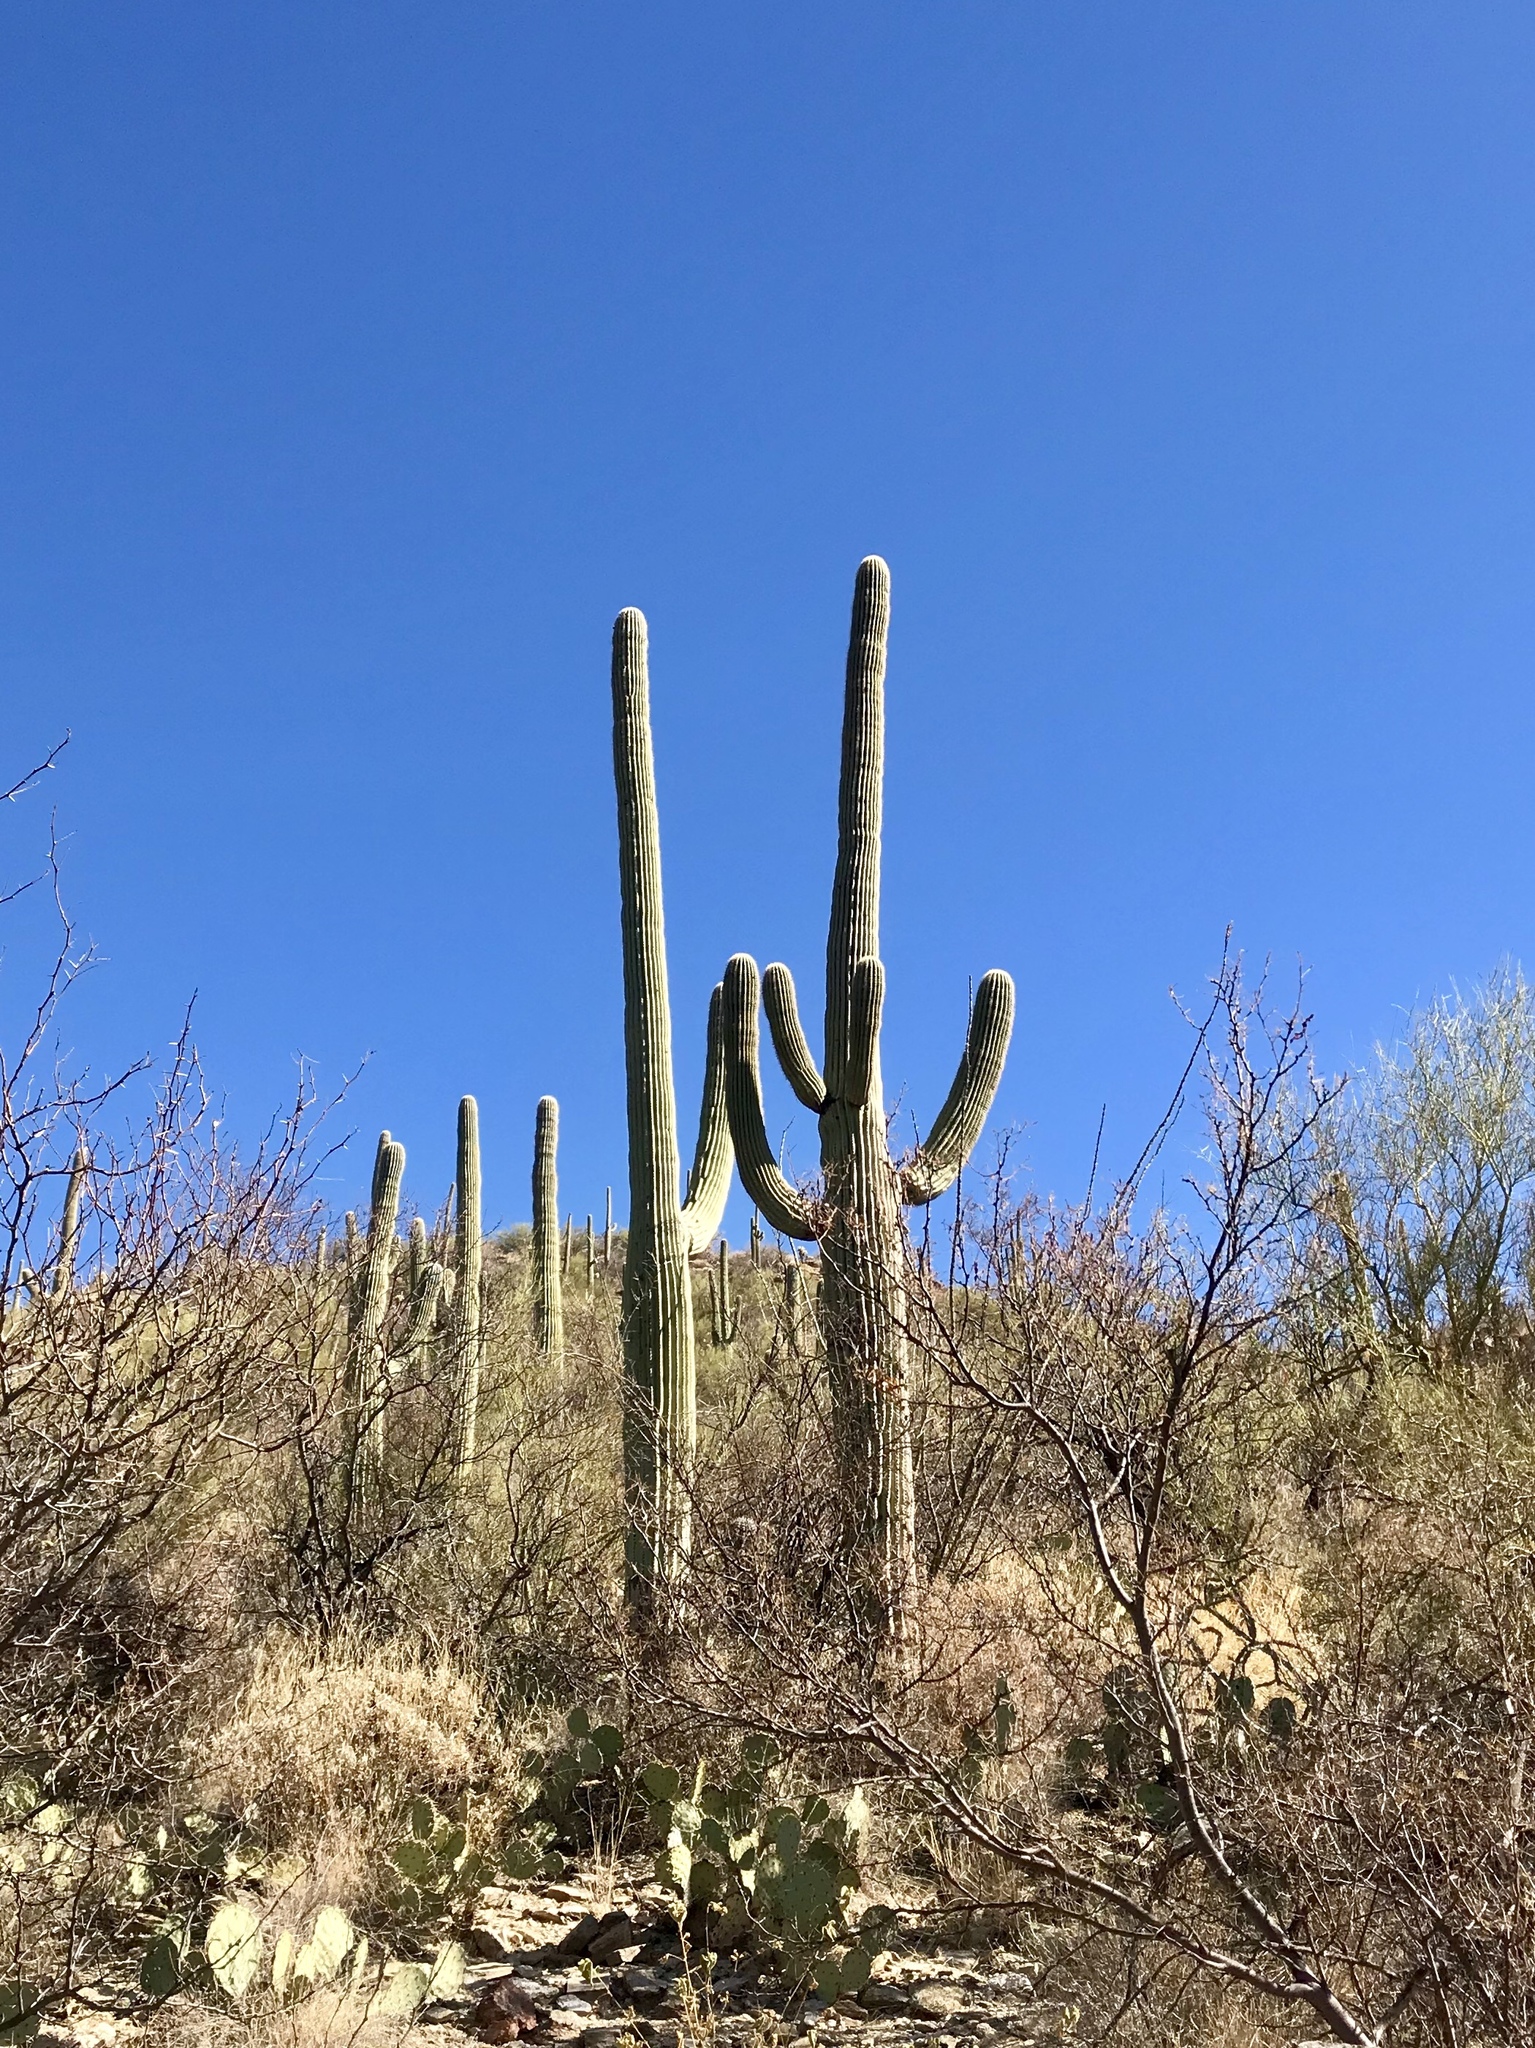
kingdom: Plantae
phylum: Tracheophyta
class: Magnoliopsida
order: Caryophyllales
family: Cactaceae
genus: Carnegiea
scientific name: Carnegiea gigantea
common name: Saguaro
